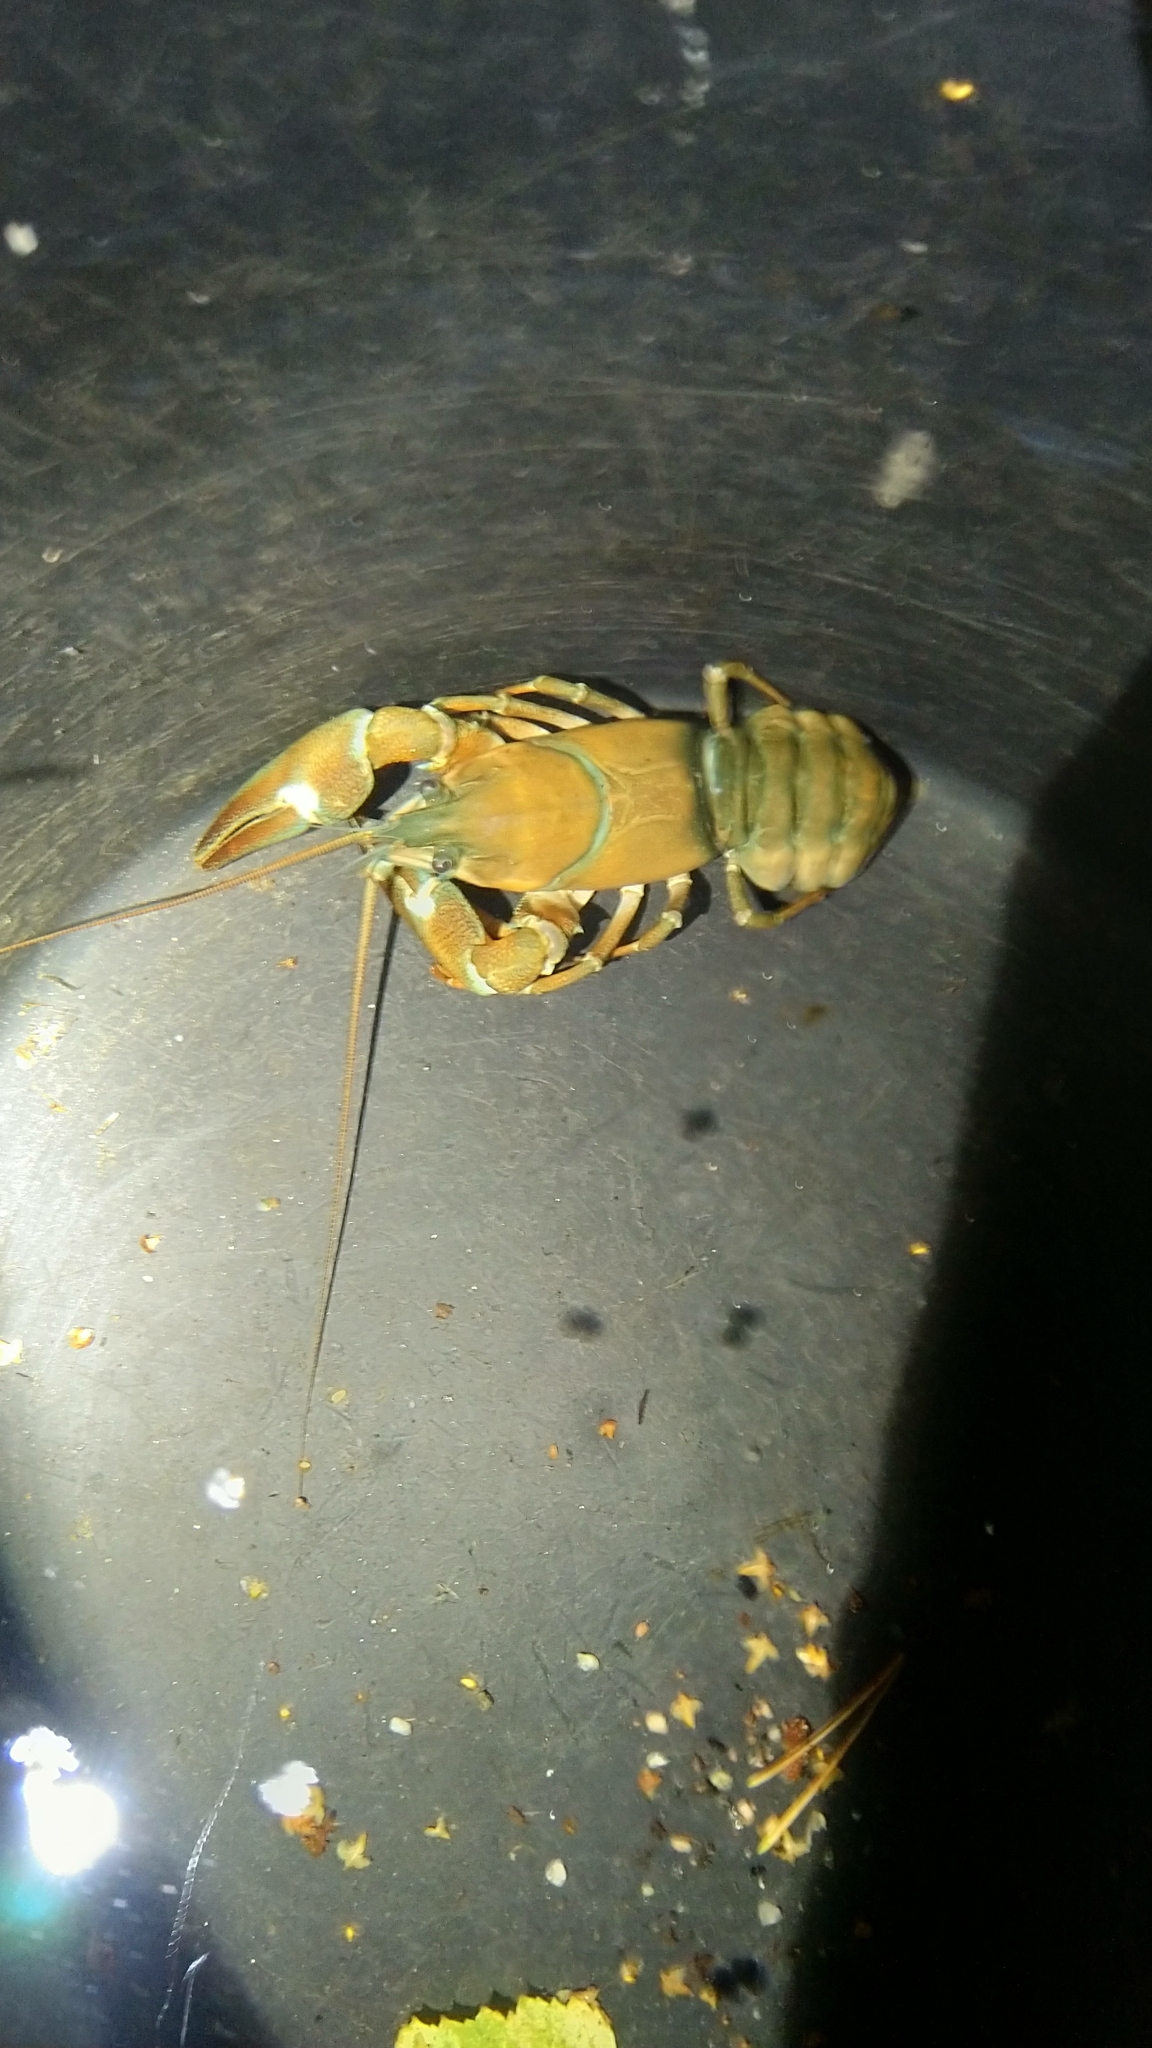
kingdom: Animalia
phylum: Arthropoda
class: Malacostraca
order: Decapoda
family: Astacidae
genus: Pacifastacus
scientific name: Pacifastacus leniusculus
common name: Signal crayfish
